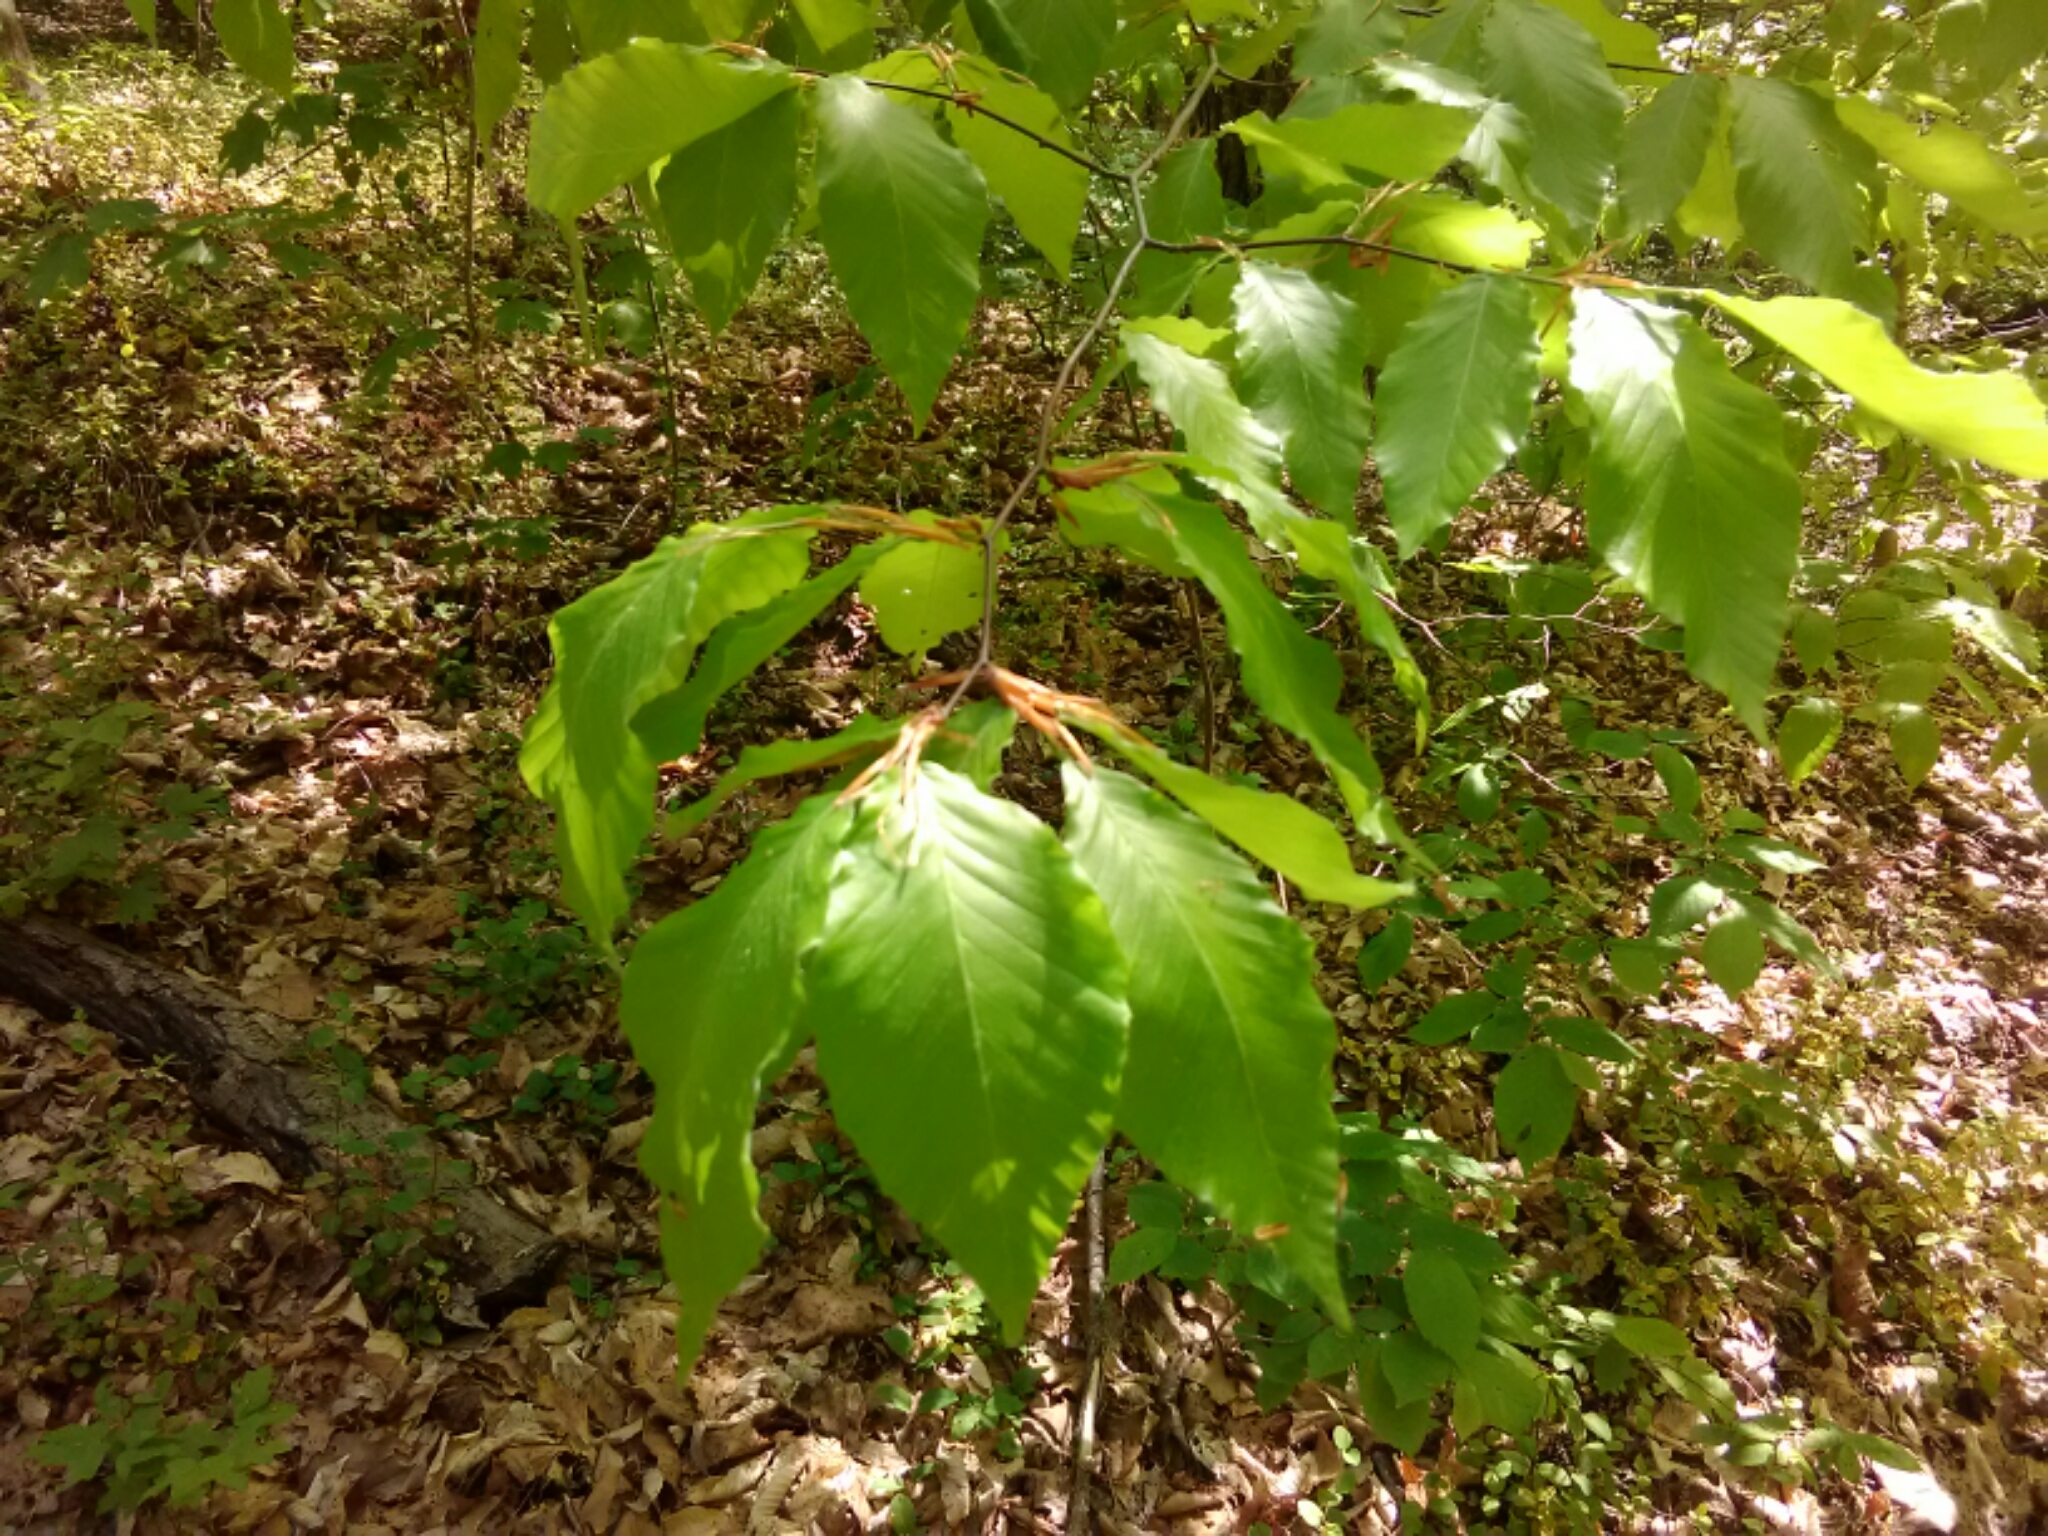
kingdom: Plantae
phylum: Tracheophyta
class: Magnoliopsida
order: Fagales
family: Fagaceae
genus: Fagus
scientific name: Fagus grandifolia
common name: American beech
